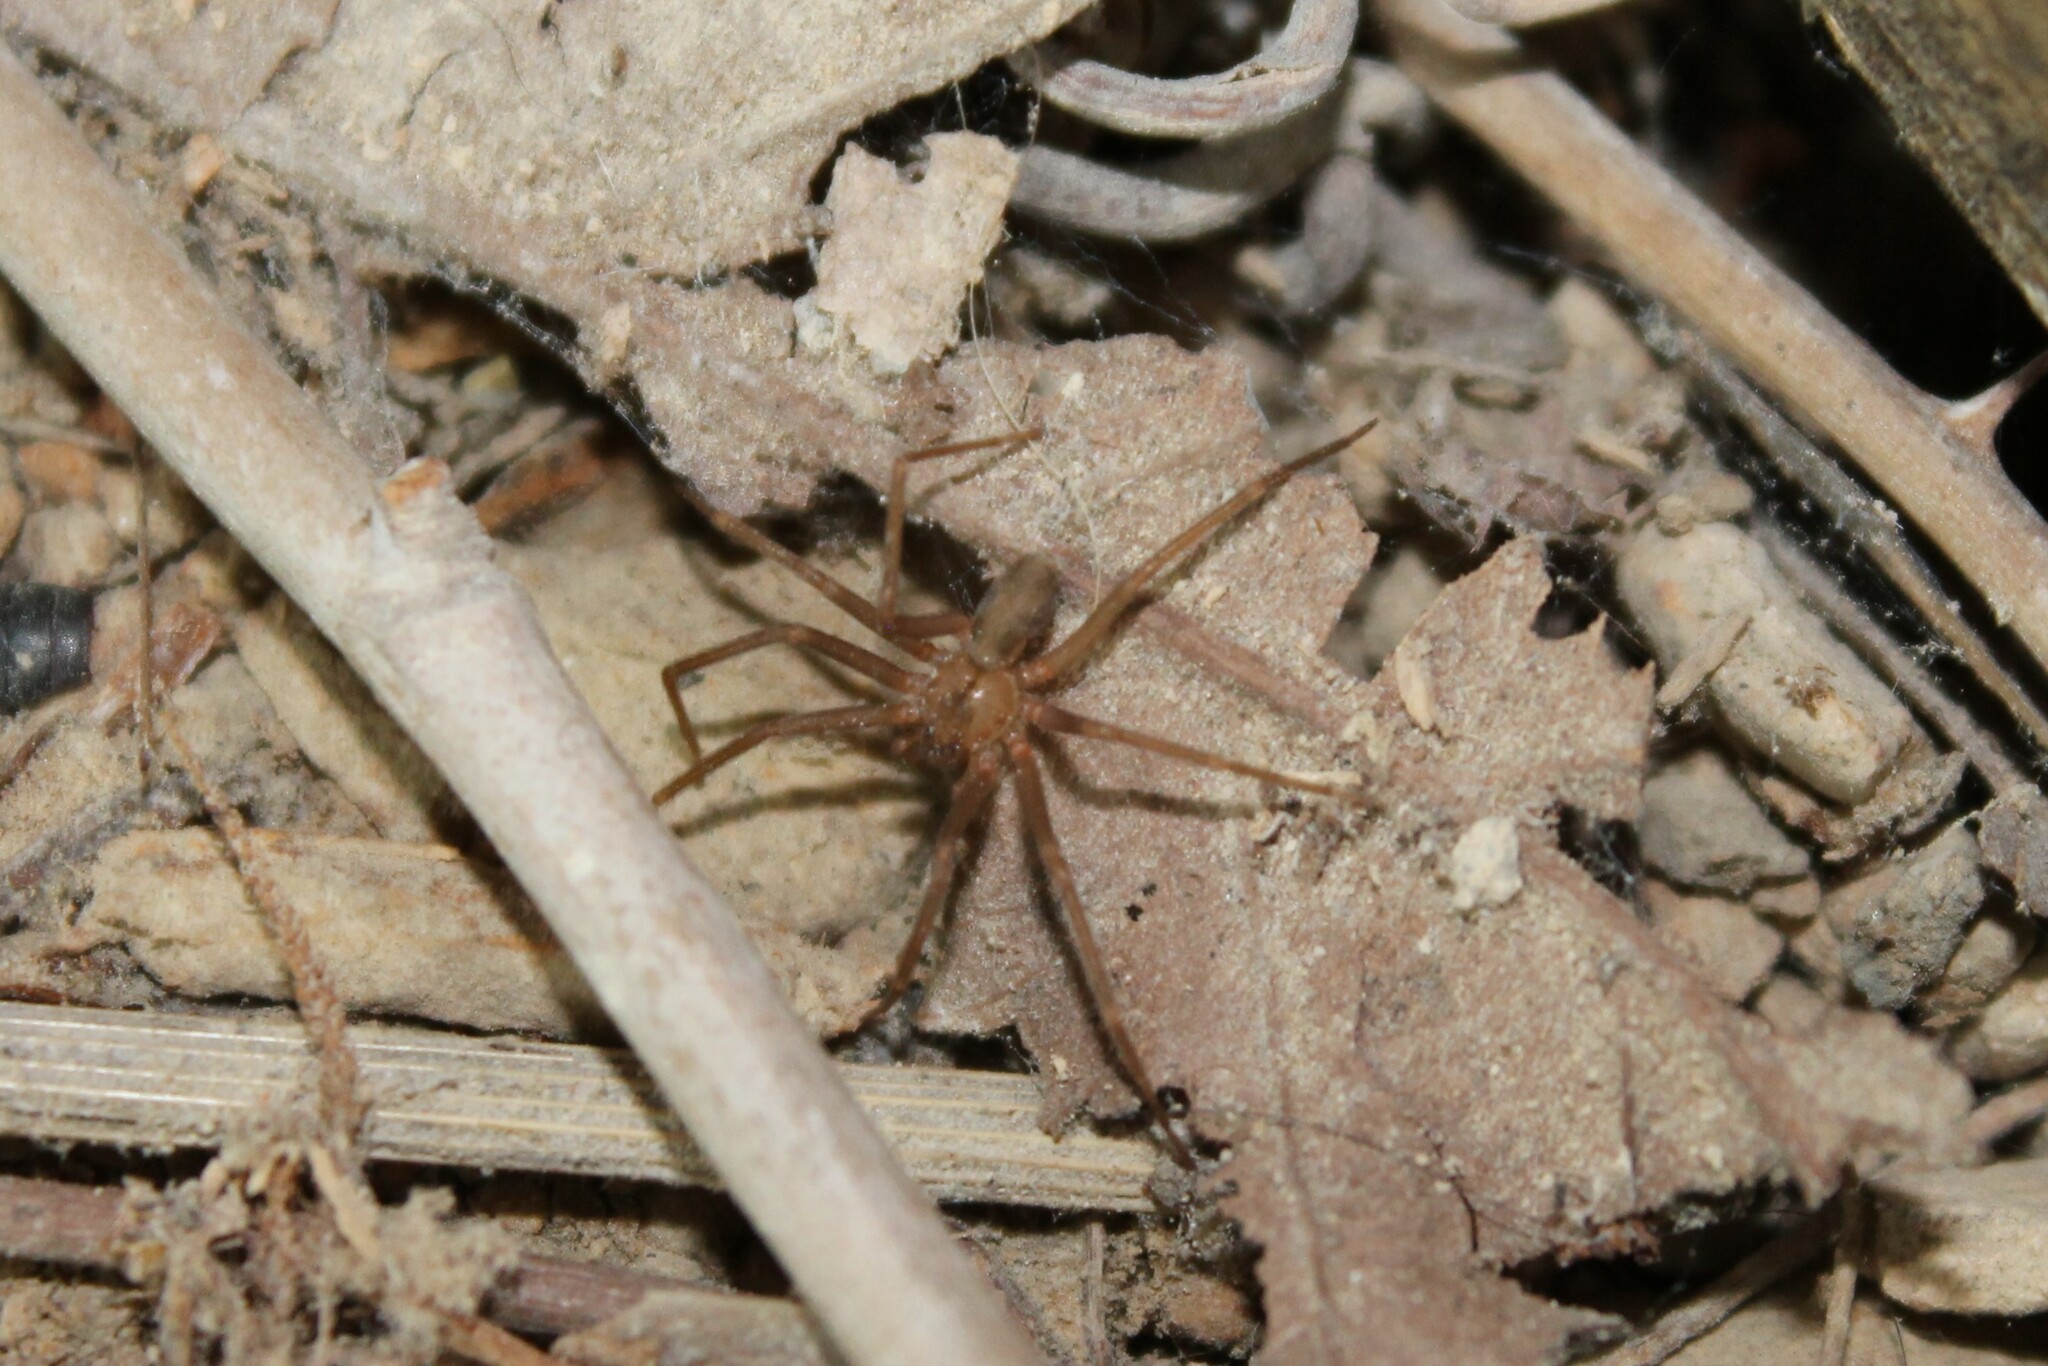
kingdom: Animalia
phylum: Arthropoda
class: Arachnida
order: Araneae
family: Sicariidae
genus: Loxosceles
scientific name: Loxosceles reclusa
